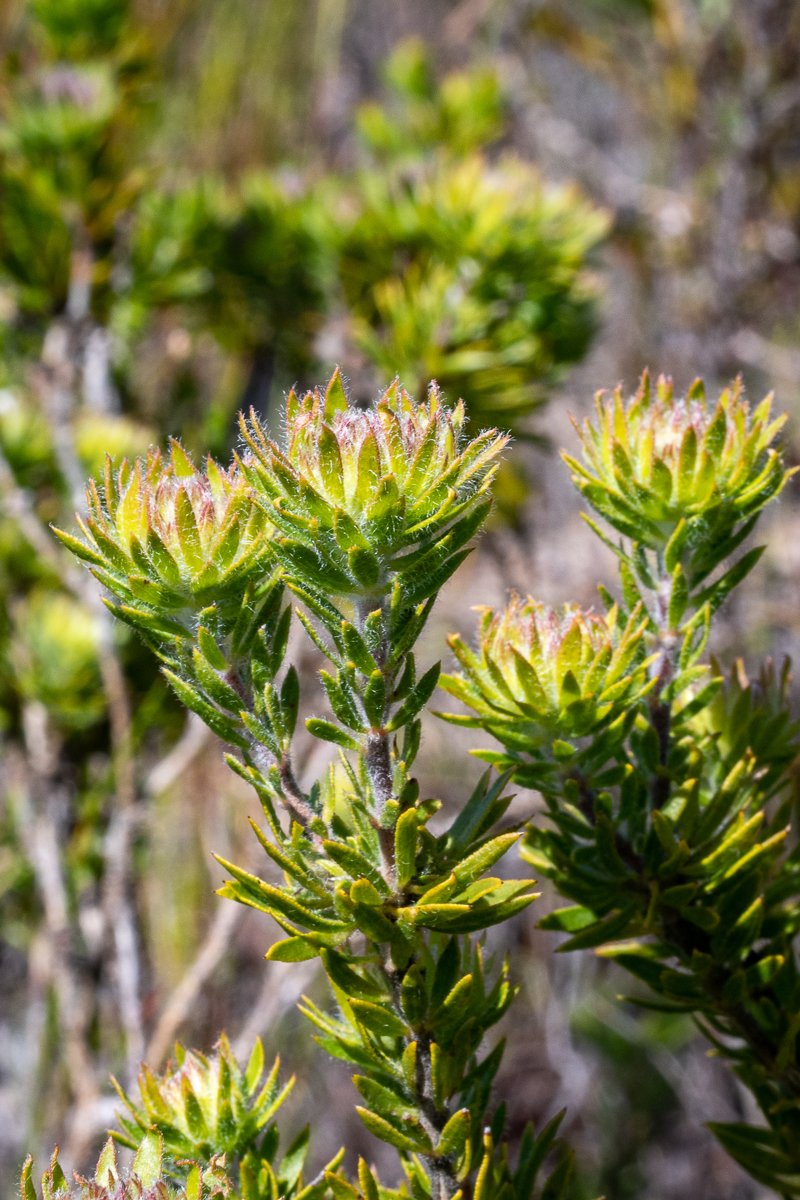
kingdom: Plantae
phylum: Tracheophyta
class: Magnoliopsida
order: Fabales
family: Fabaceae
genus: Aspalathus
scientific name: Aspalathus aspalathoides
